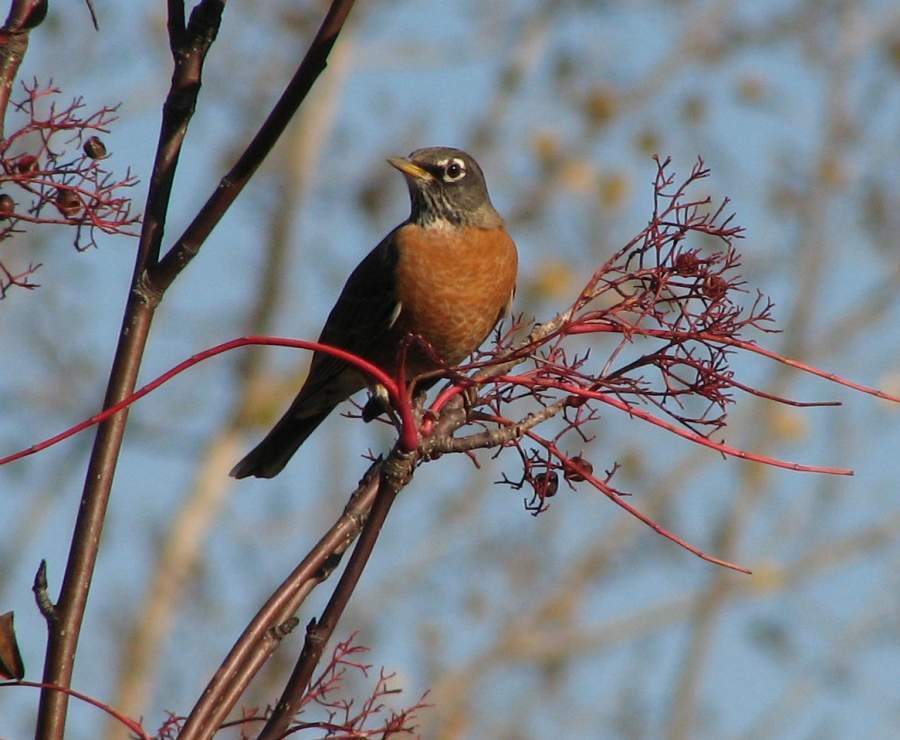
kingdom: Animalia
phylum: Chordata
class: Aves
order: Passeriformes
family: Turdidae
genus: Turdus
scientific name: Turdus migratorius
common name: American robin
